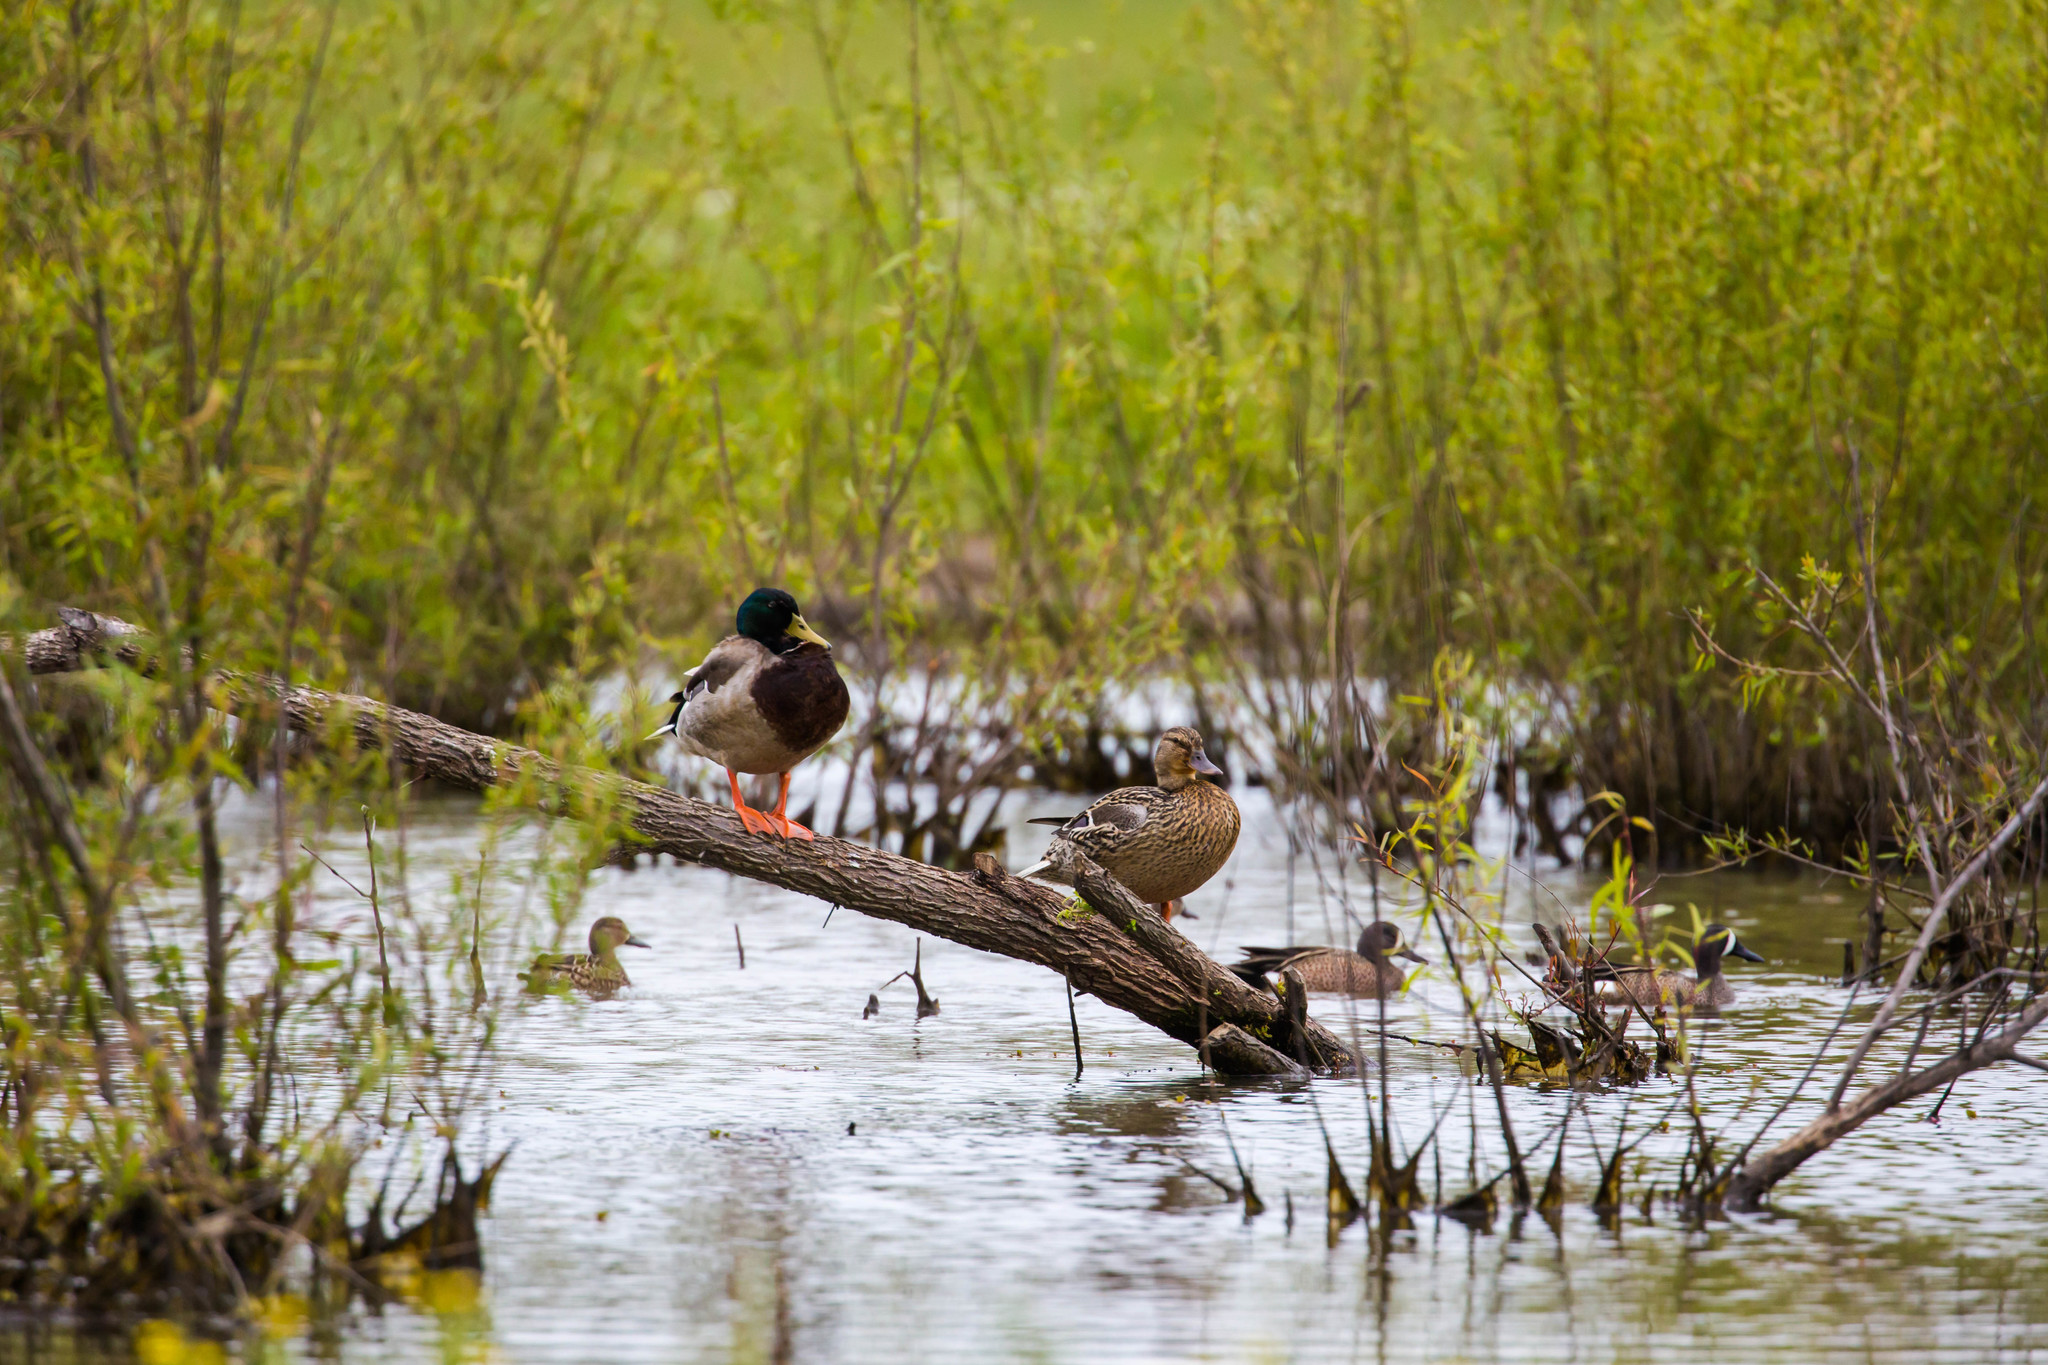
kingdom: Animalia
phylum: Chordata
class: Aves
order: Anseriformes
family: Anatidae
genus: Anas
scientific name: Anas platyrhynchos
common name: Mallard
